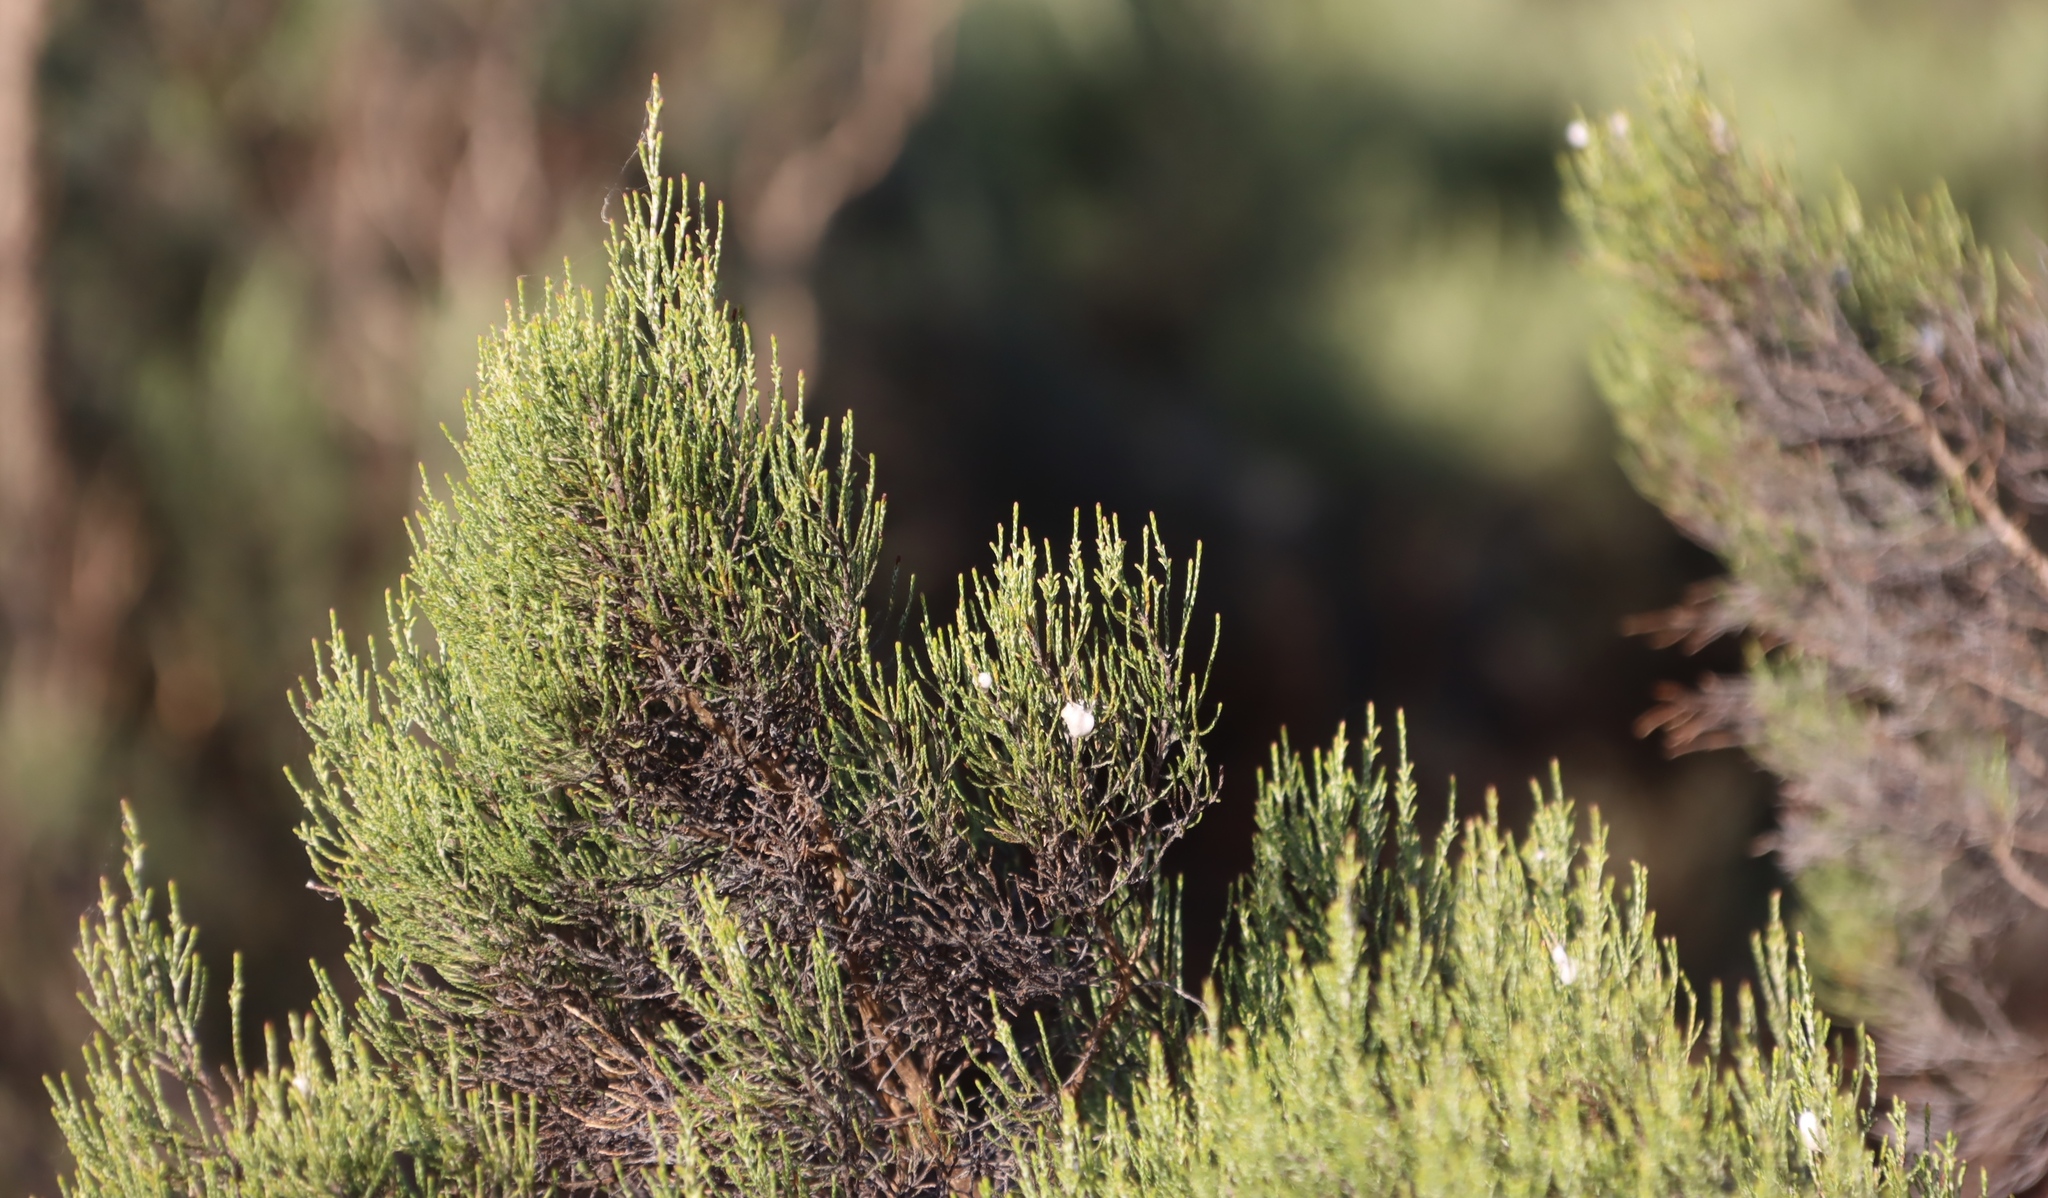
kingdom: Plantae
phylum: Tracheophyta
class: Magnoliopsida
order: Asterales
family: Asteraceae
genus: Dicerothamnus
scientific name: Dicerothamnus rhinocerotis
